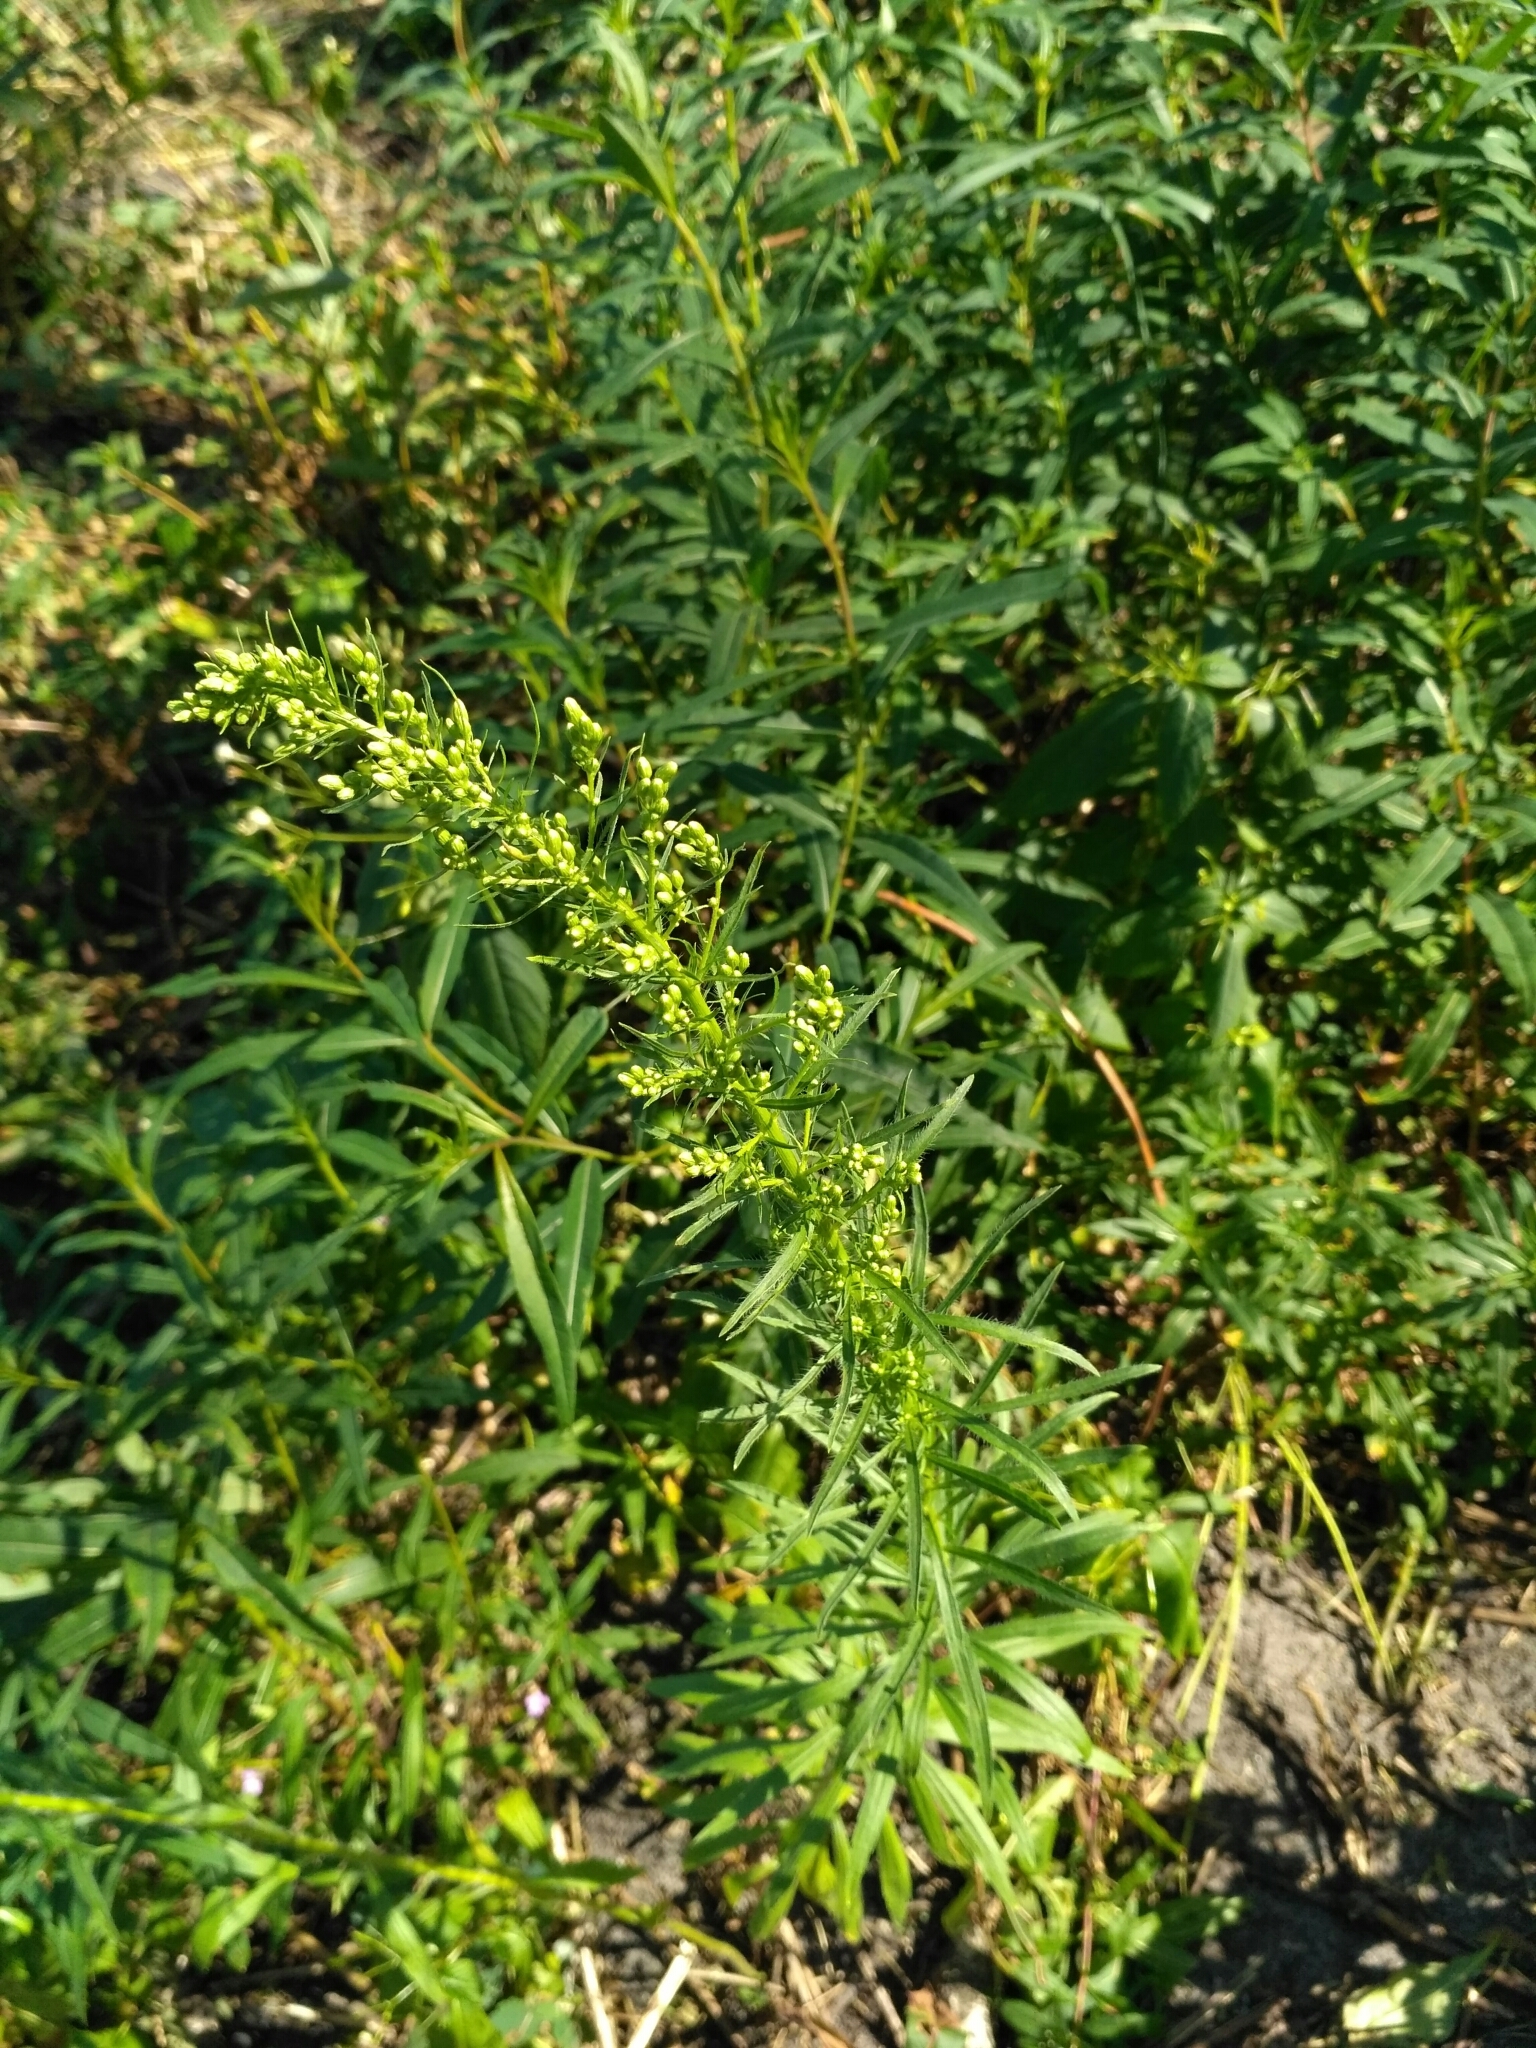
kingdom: Plantae
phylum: Tracheophyta
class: Magnoliopsida
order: Asterales
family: Asteraceae
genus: Erigeron
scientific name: Erigeron canadensis
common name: Canadian fleabane
